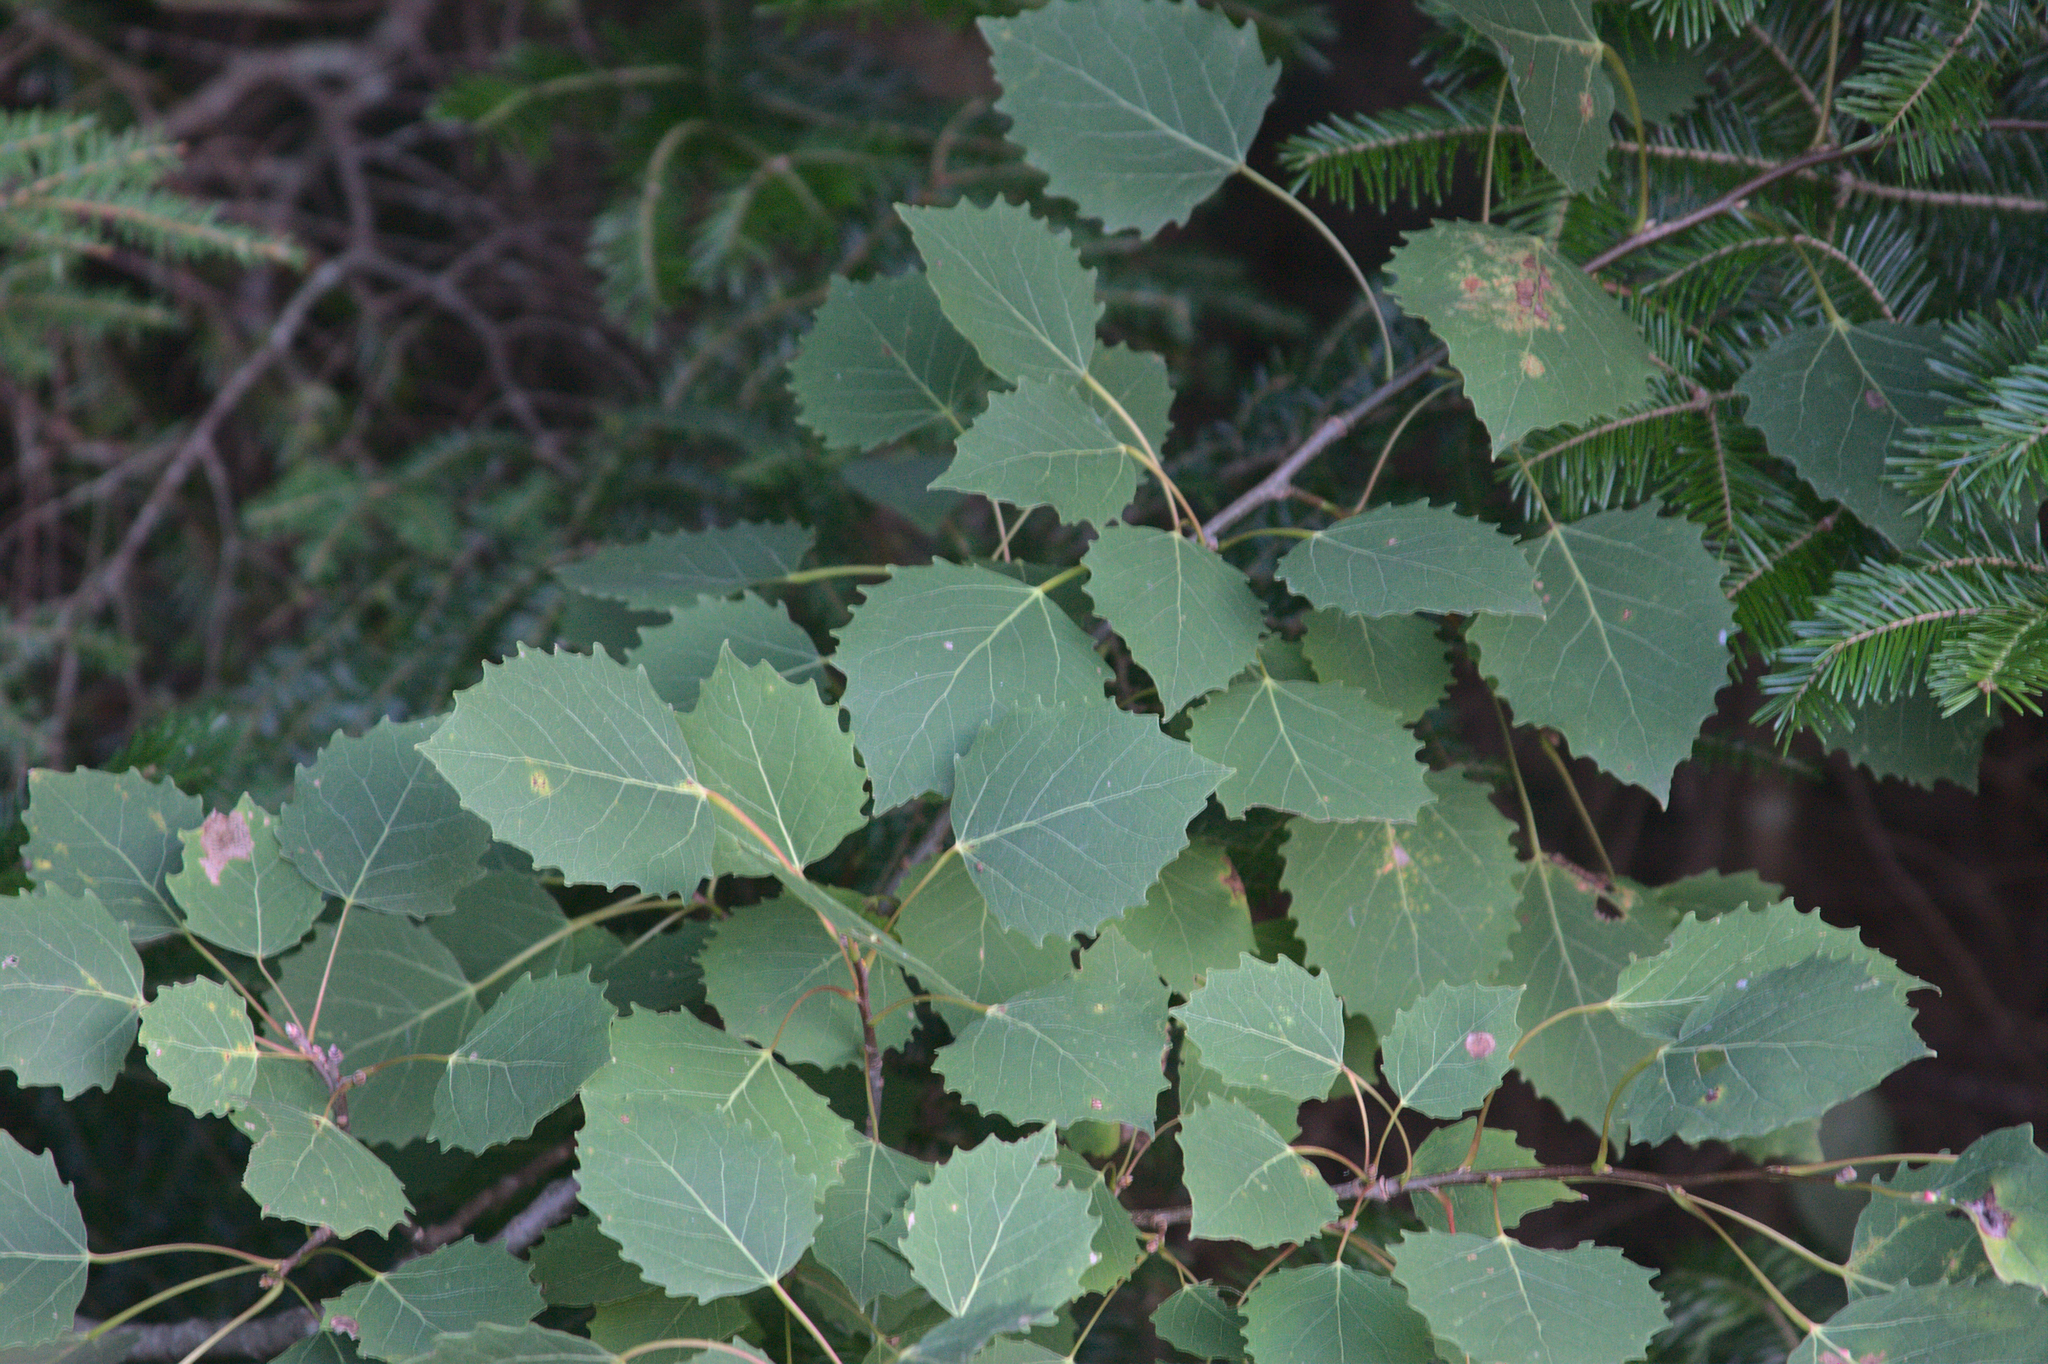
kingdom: Plantae
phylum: Tracheophyta
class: Magnoliopsida
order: Malpighiales
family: Salicaceae
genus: Populus
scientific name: Populus grandidentata
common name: Bigtooth aspen
